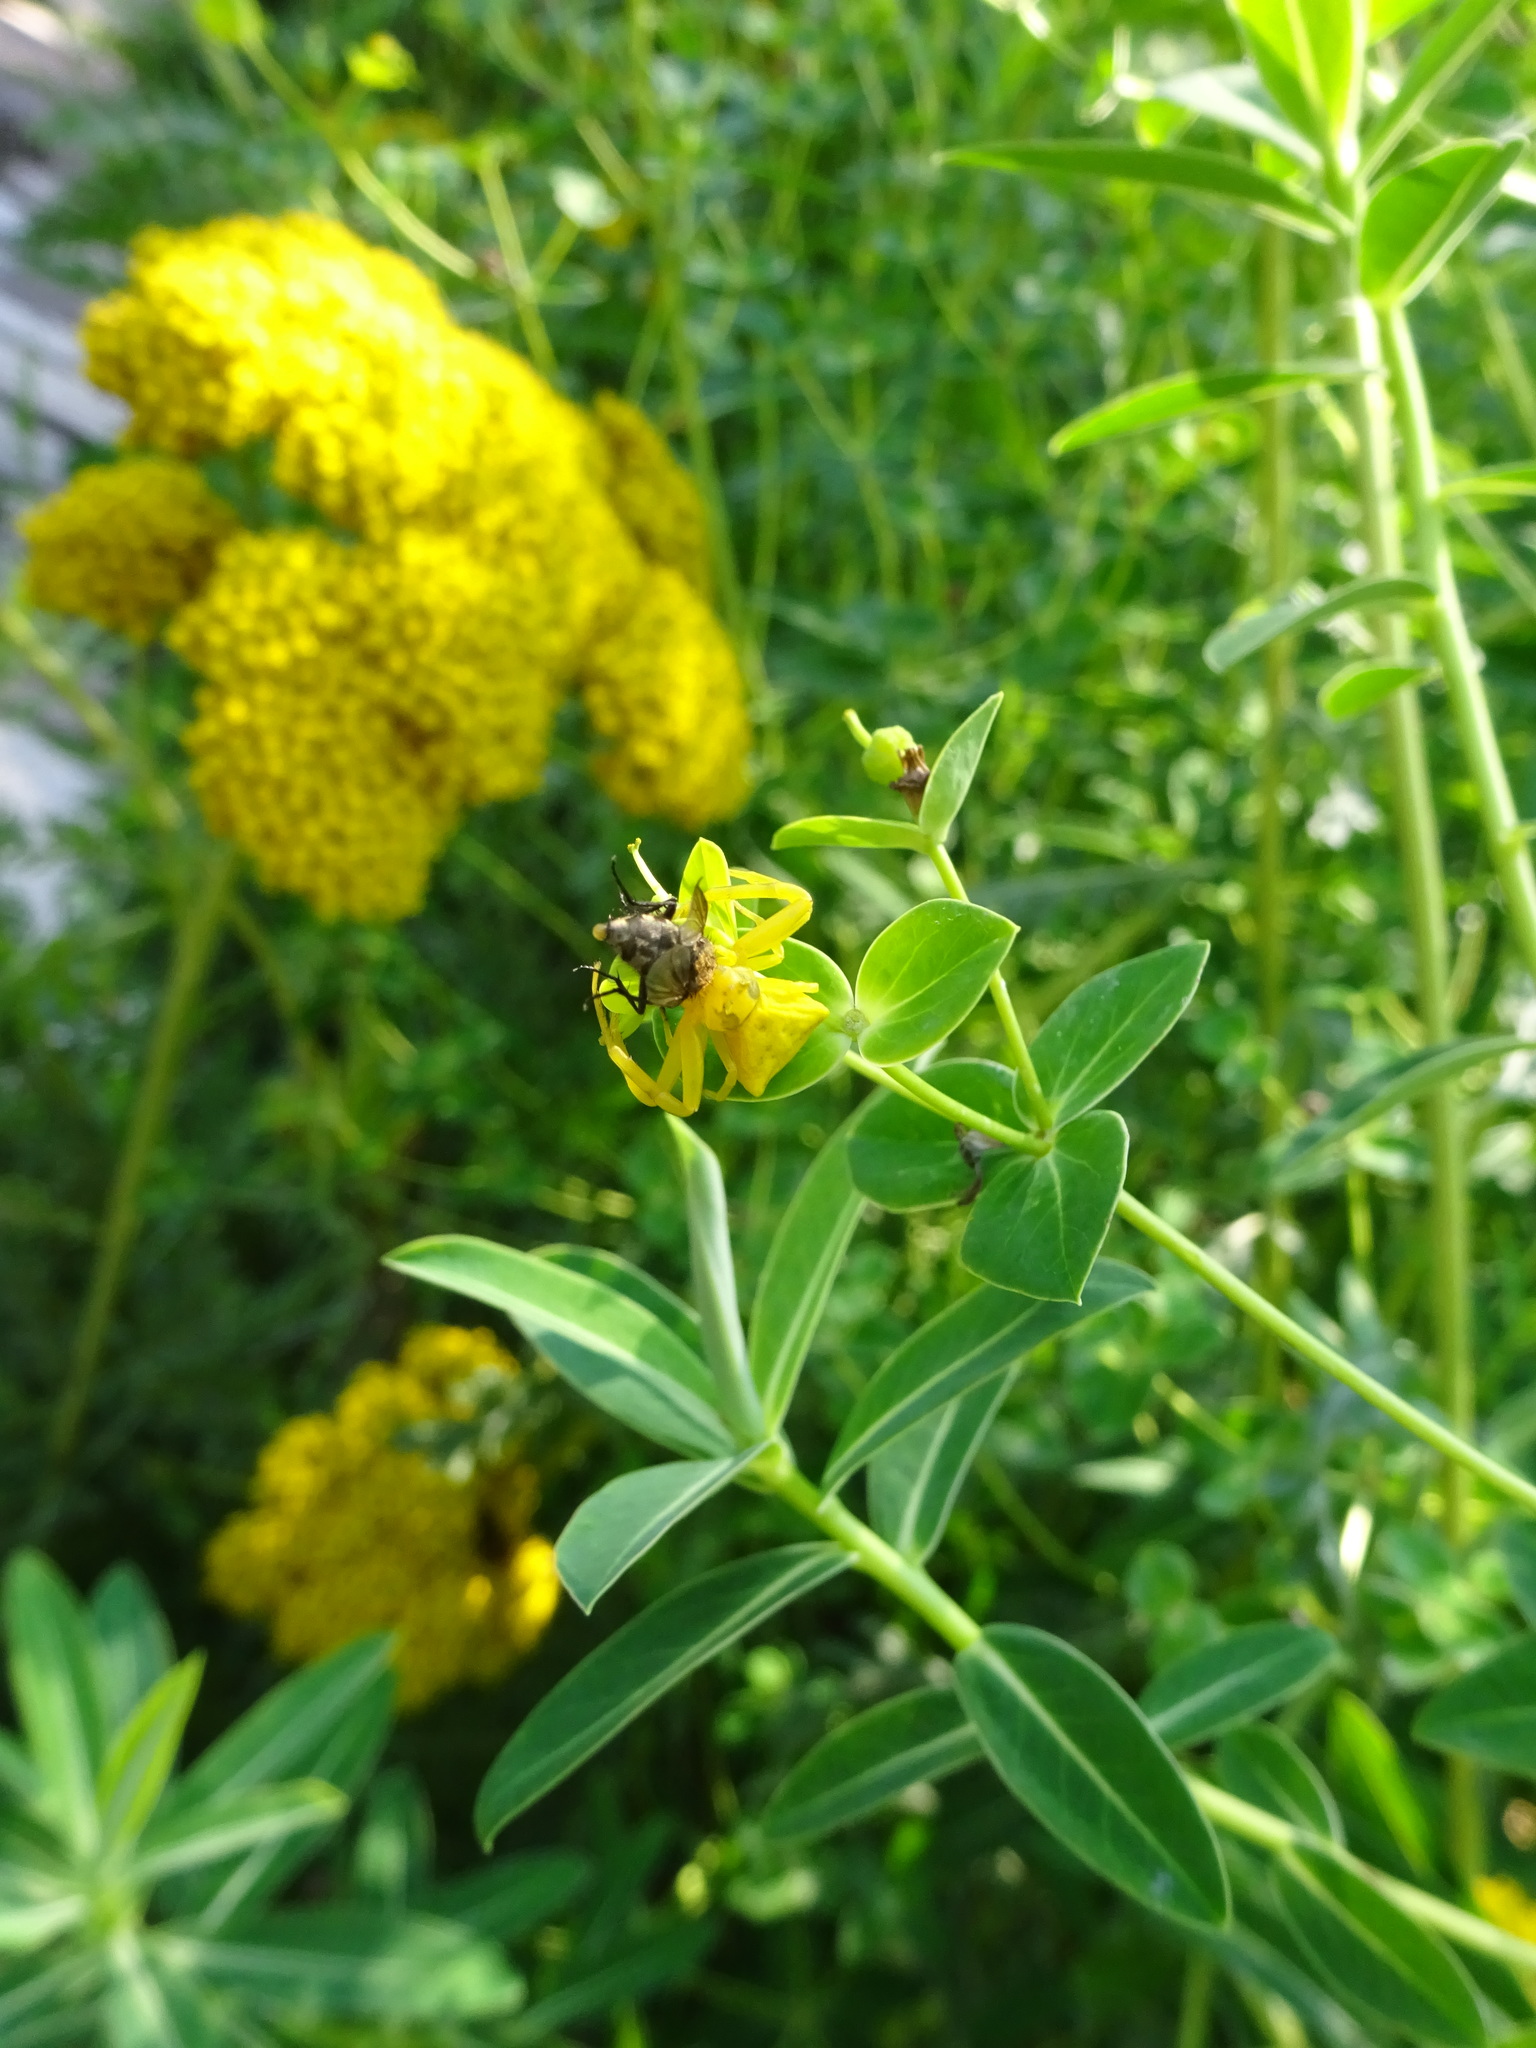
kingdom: Animalia
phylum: Arthropoda
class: Arachnida
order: Araneae
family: Thomisidae
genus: Thomisus
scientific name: Thomisus onustus
